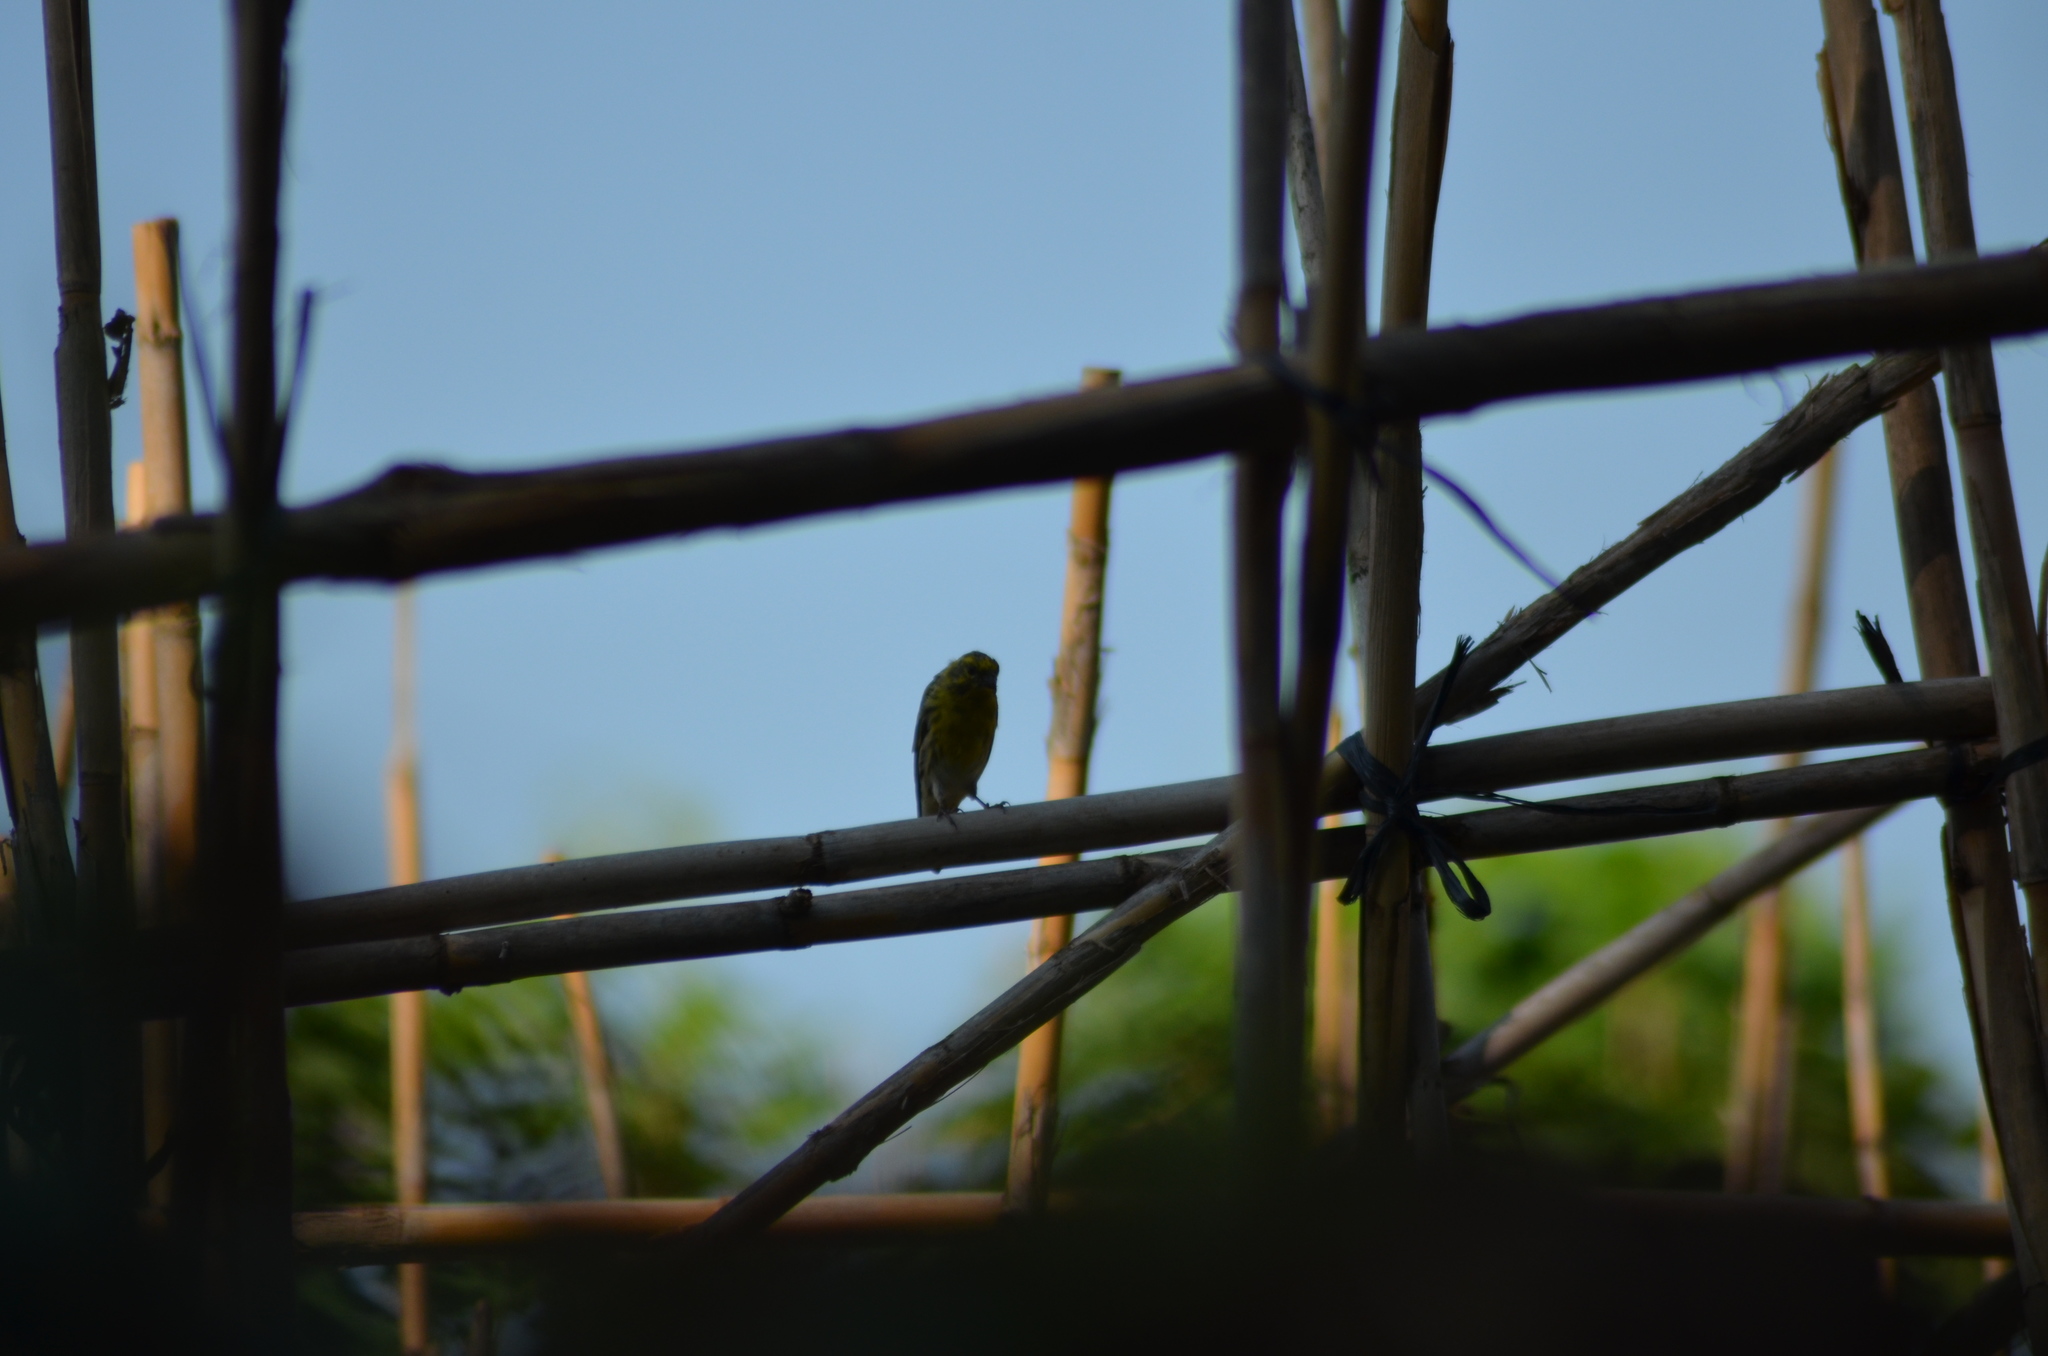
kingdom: Animalia
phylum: Chordata
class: Aves
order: Passeriformes
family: Fringillidae
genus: Serinus
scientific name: Serinus serinus
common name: European serin
